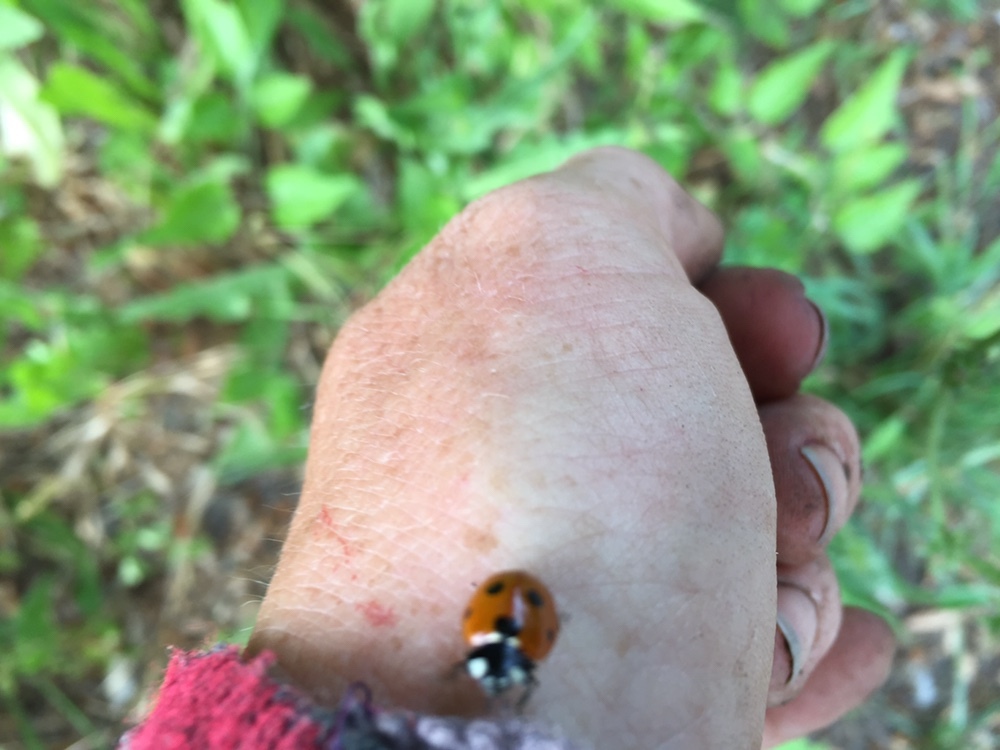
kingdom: Animalia
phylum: Arthropoda
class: Insecta
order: Coleoptera
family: Coccinellidae
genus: Coccinella
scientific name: Coccinella septempunctata
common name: Sevenspotted lady beetle
